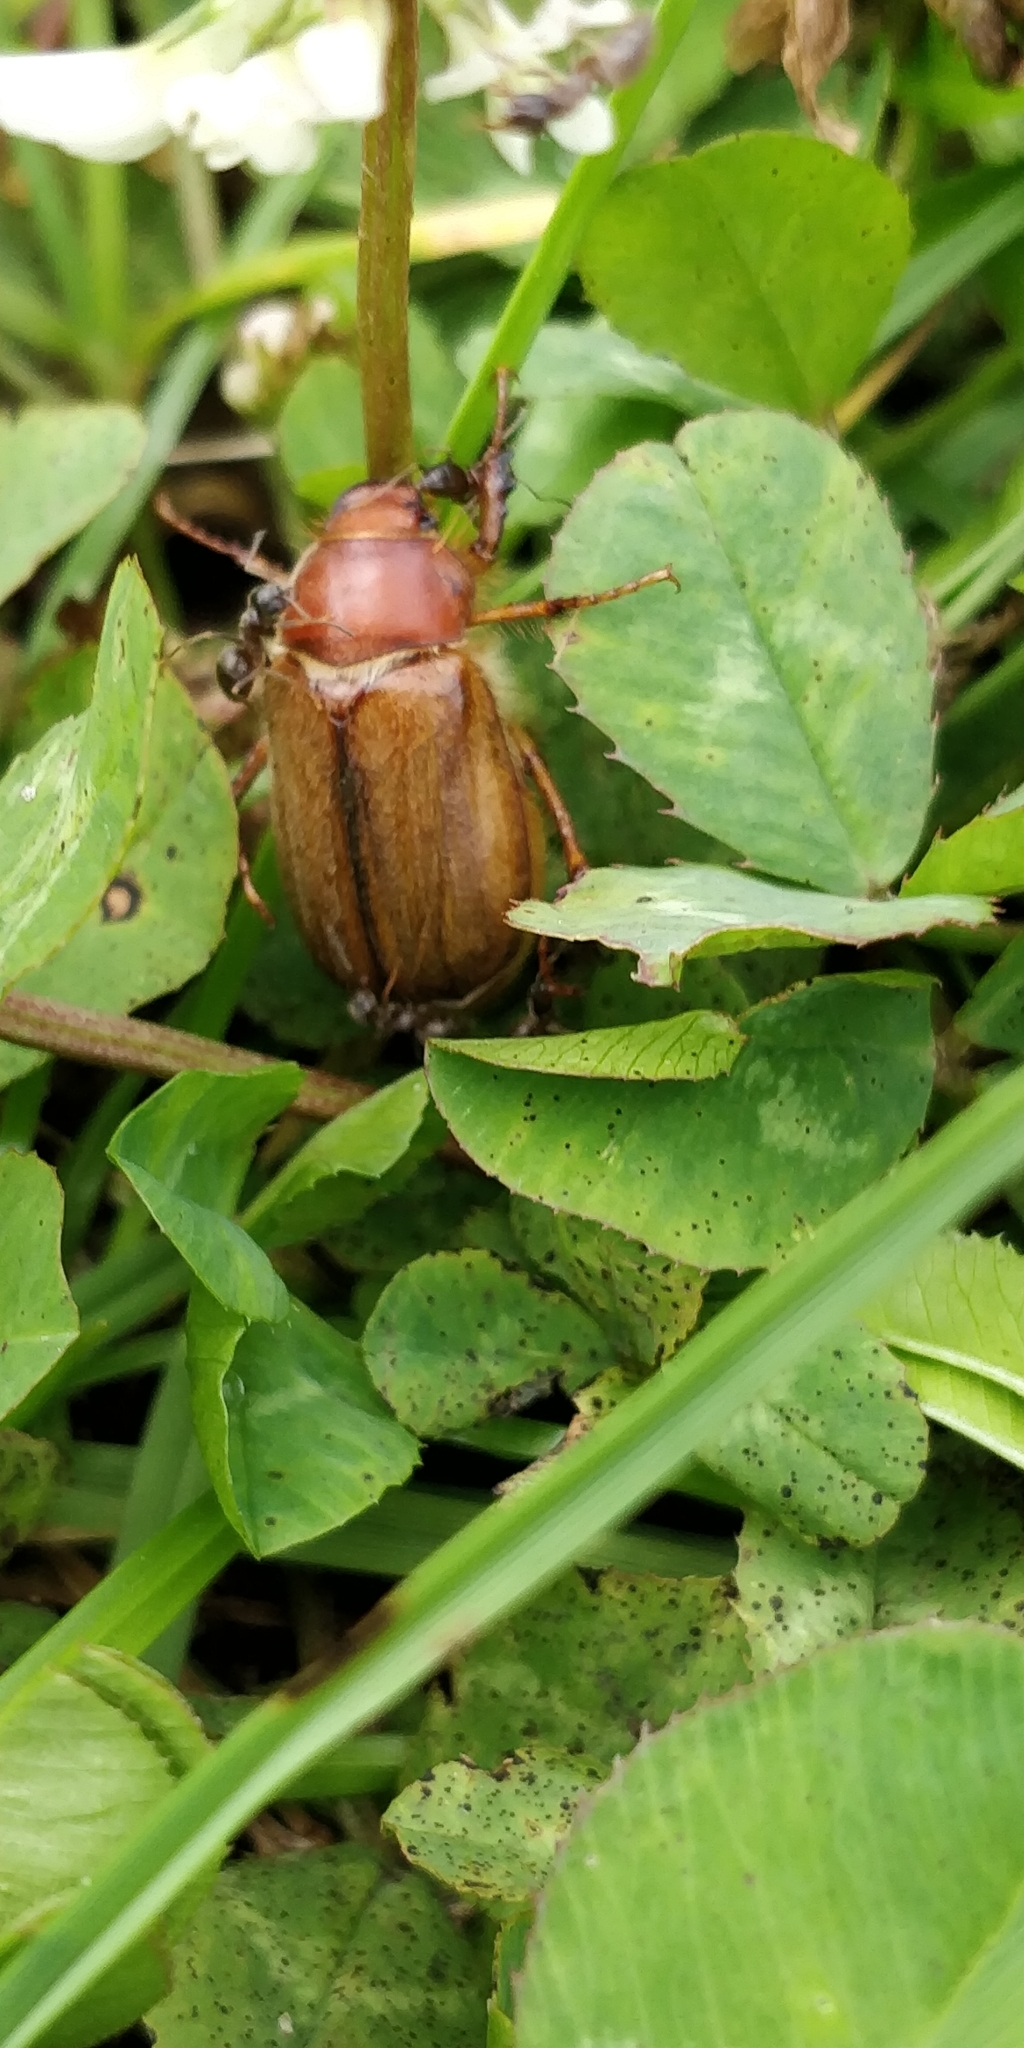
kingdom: Animalia
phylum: Arthropoda
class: Insecta
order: Coleoptera
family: Scarabaeidae
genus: Amphimallon
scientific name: Amphimallon majale
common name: European chafer
